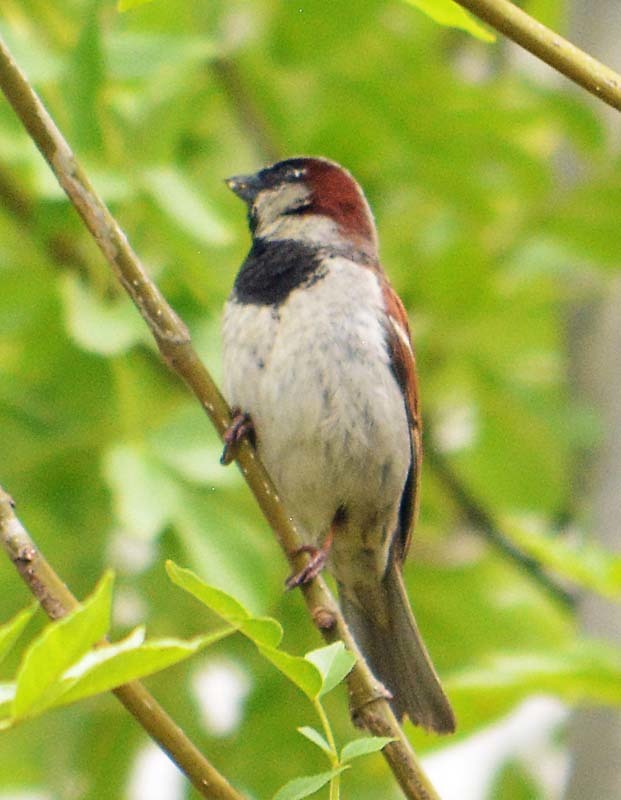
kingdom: Animalia
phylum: Chordata
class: Aves
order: Passeriformes
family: Passeridae
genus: Passer
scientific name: Passer domesticus
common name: House sparrow
